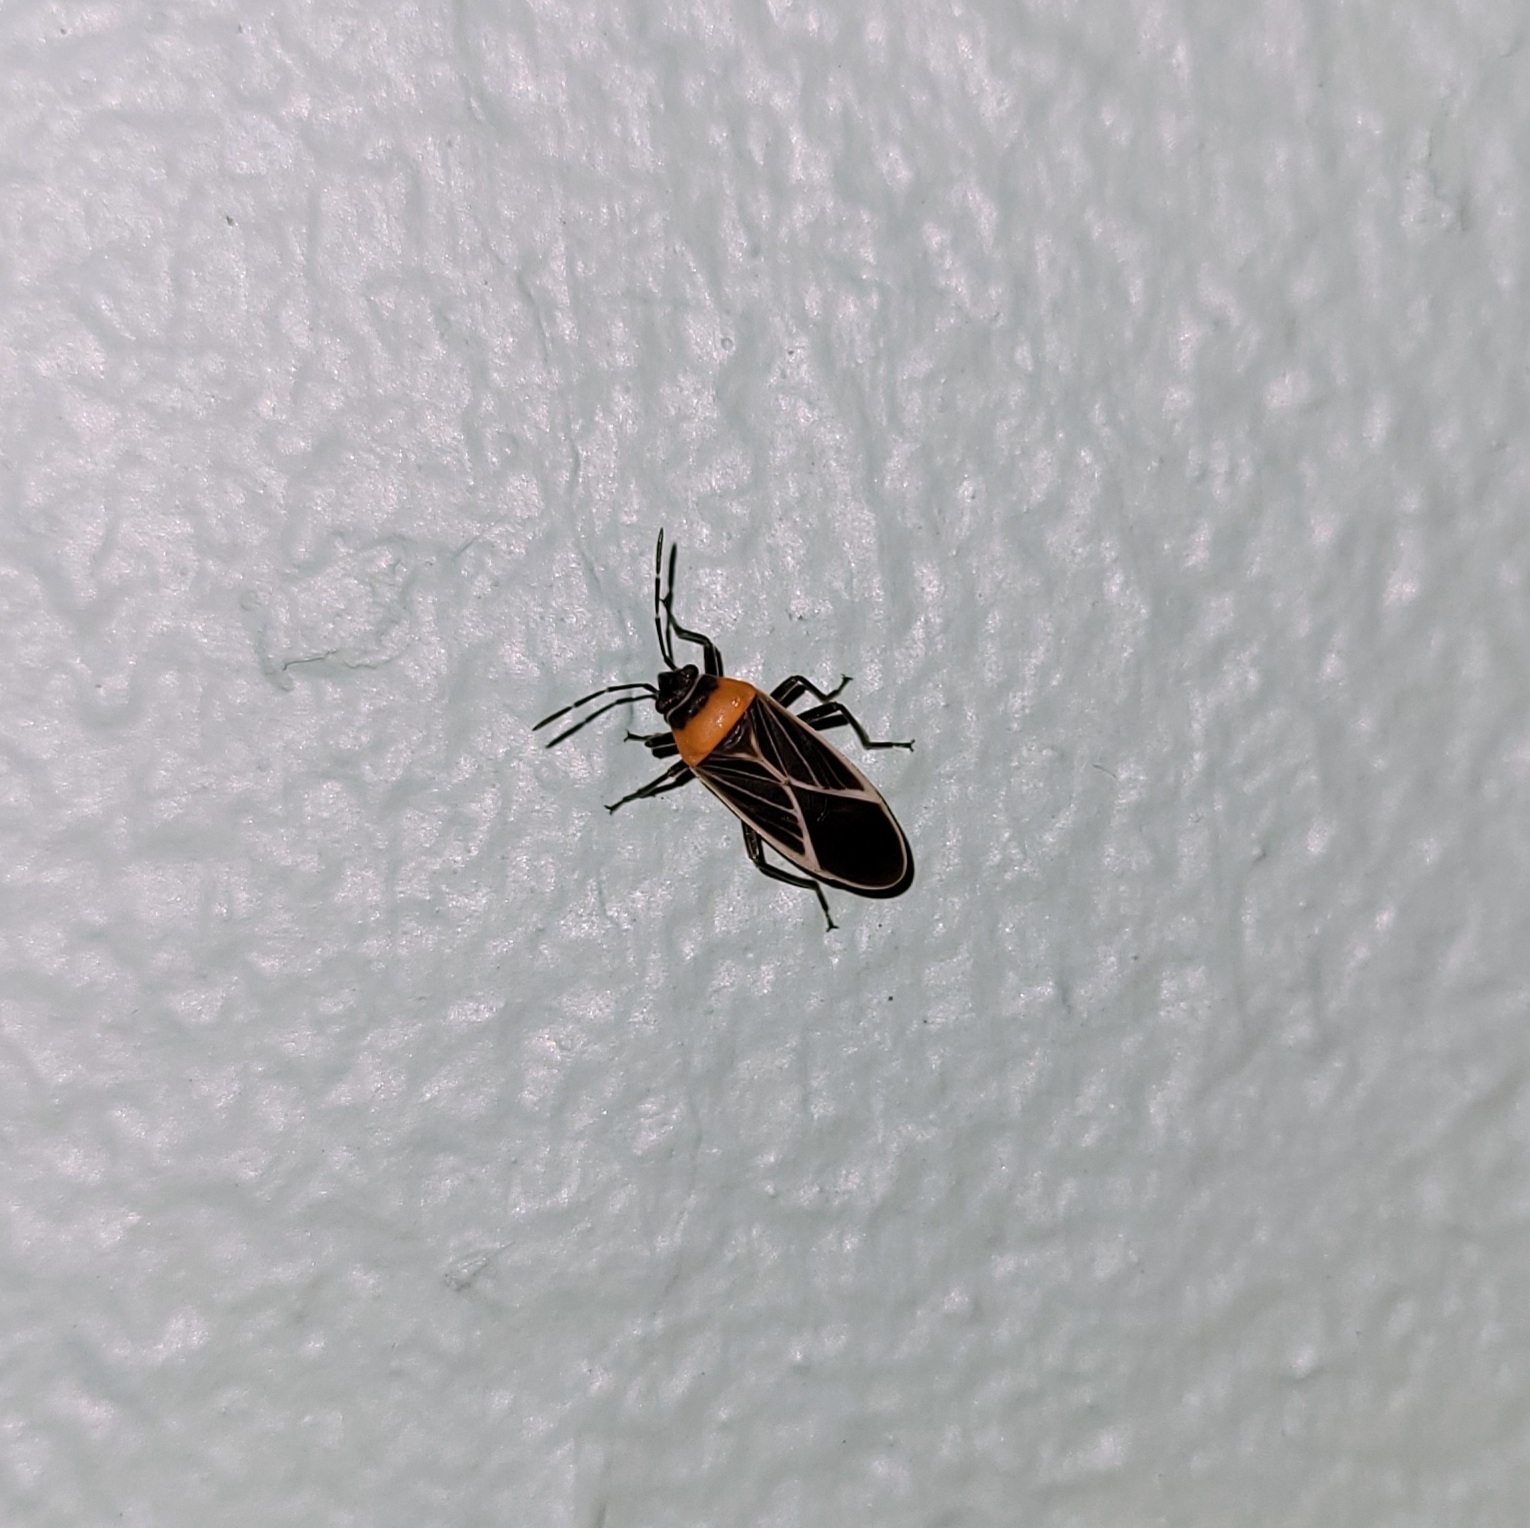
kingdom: Animalia
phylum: Arthropoda
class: Insecta
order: Hemiptera
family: Lygaeidae
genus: Ochrimnus
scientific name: Ochrimnus laevus
